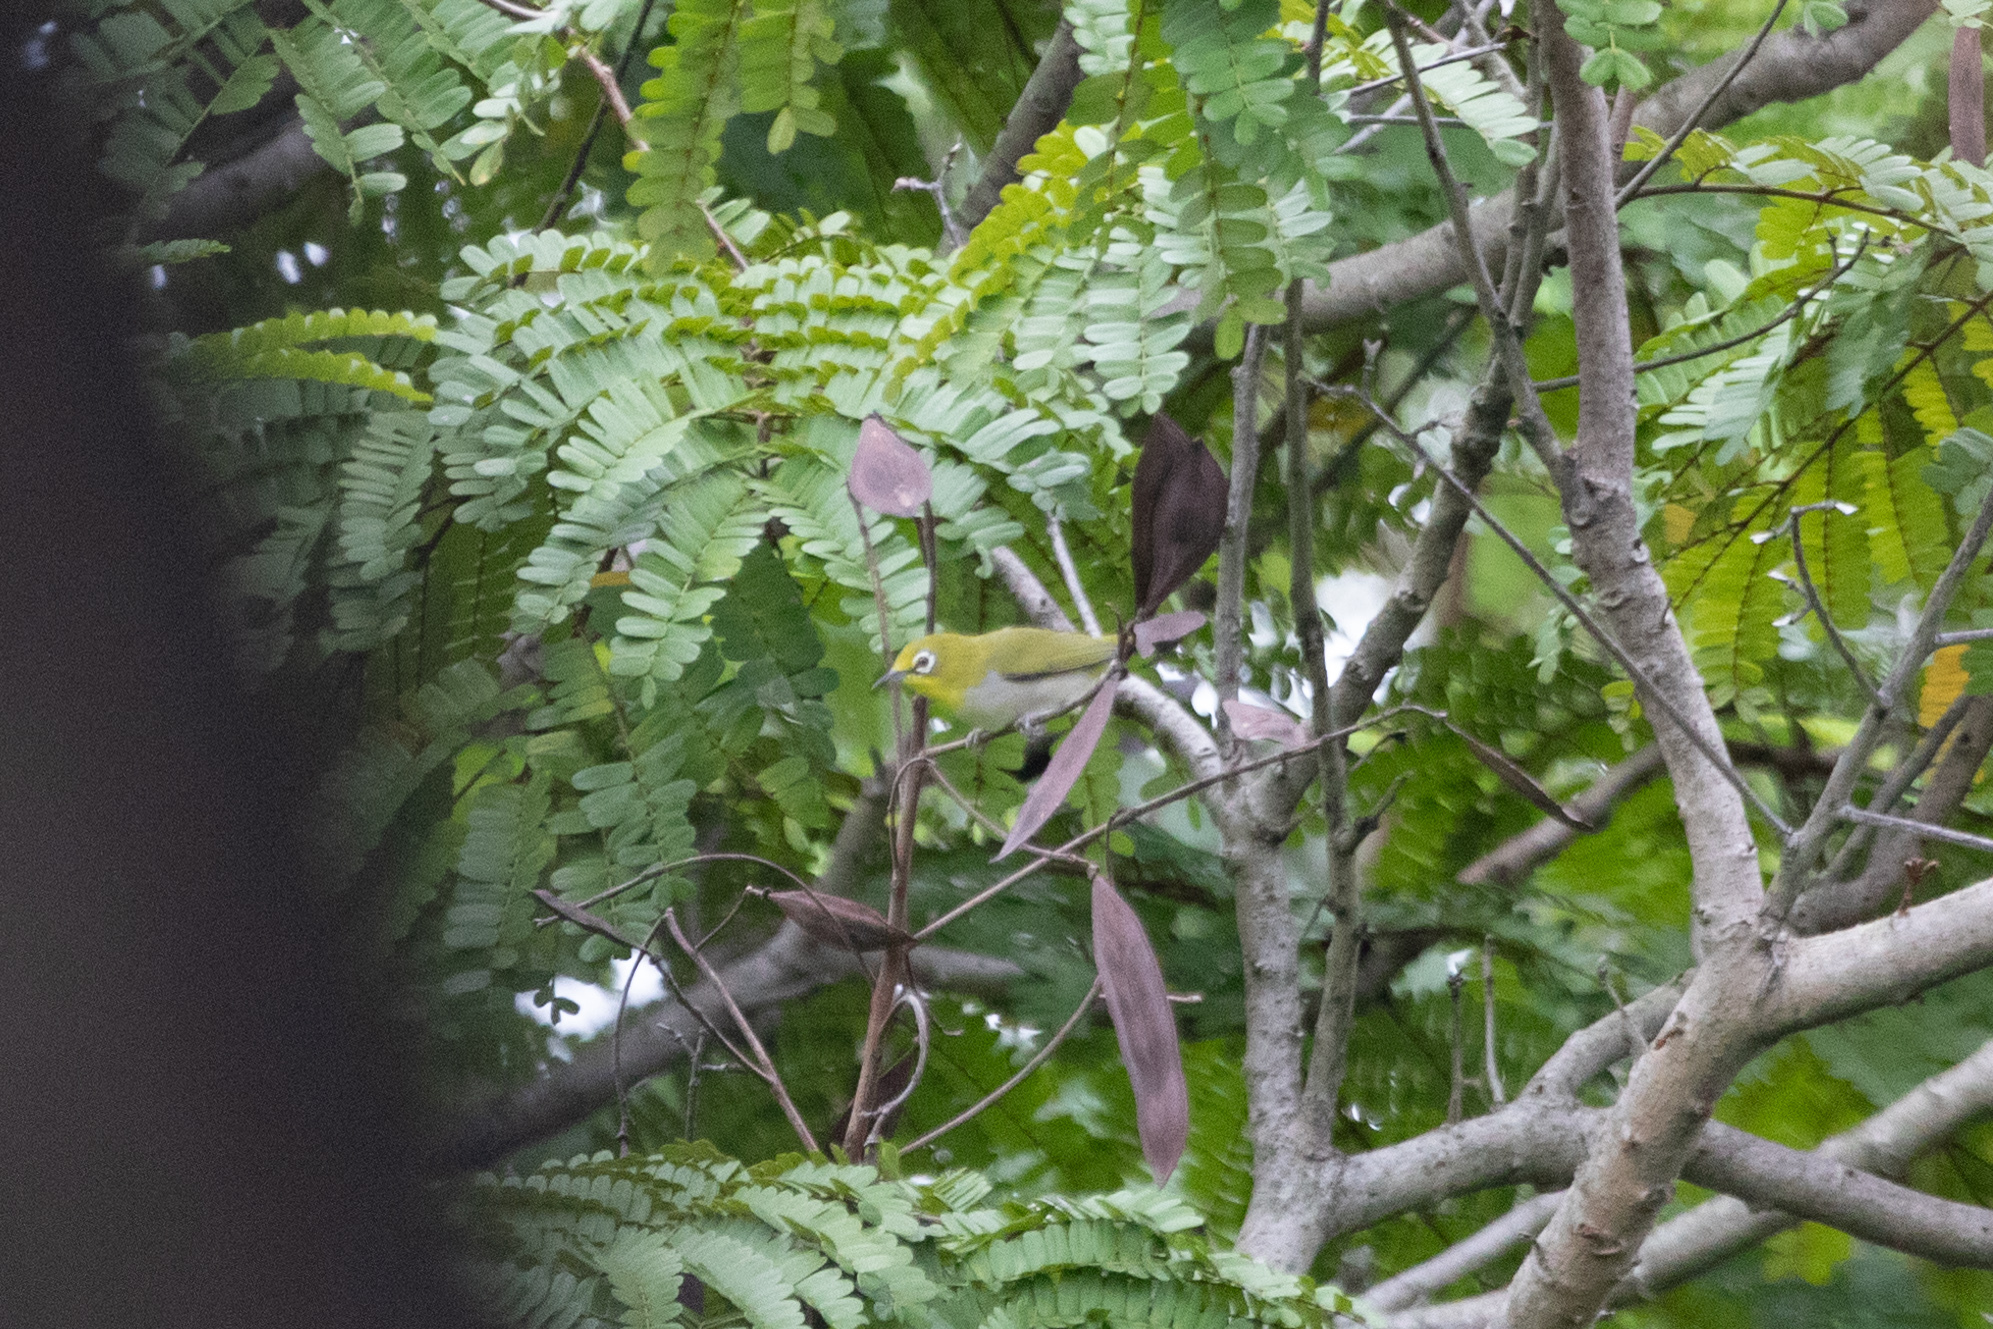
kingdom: Animalia
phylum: Chordata
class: Aves
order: Passeriformes
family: Zosteropidae
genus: Zosterops
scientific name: Zosterops simplex
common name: Swinhoe's white-eye
